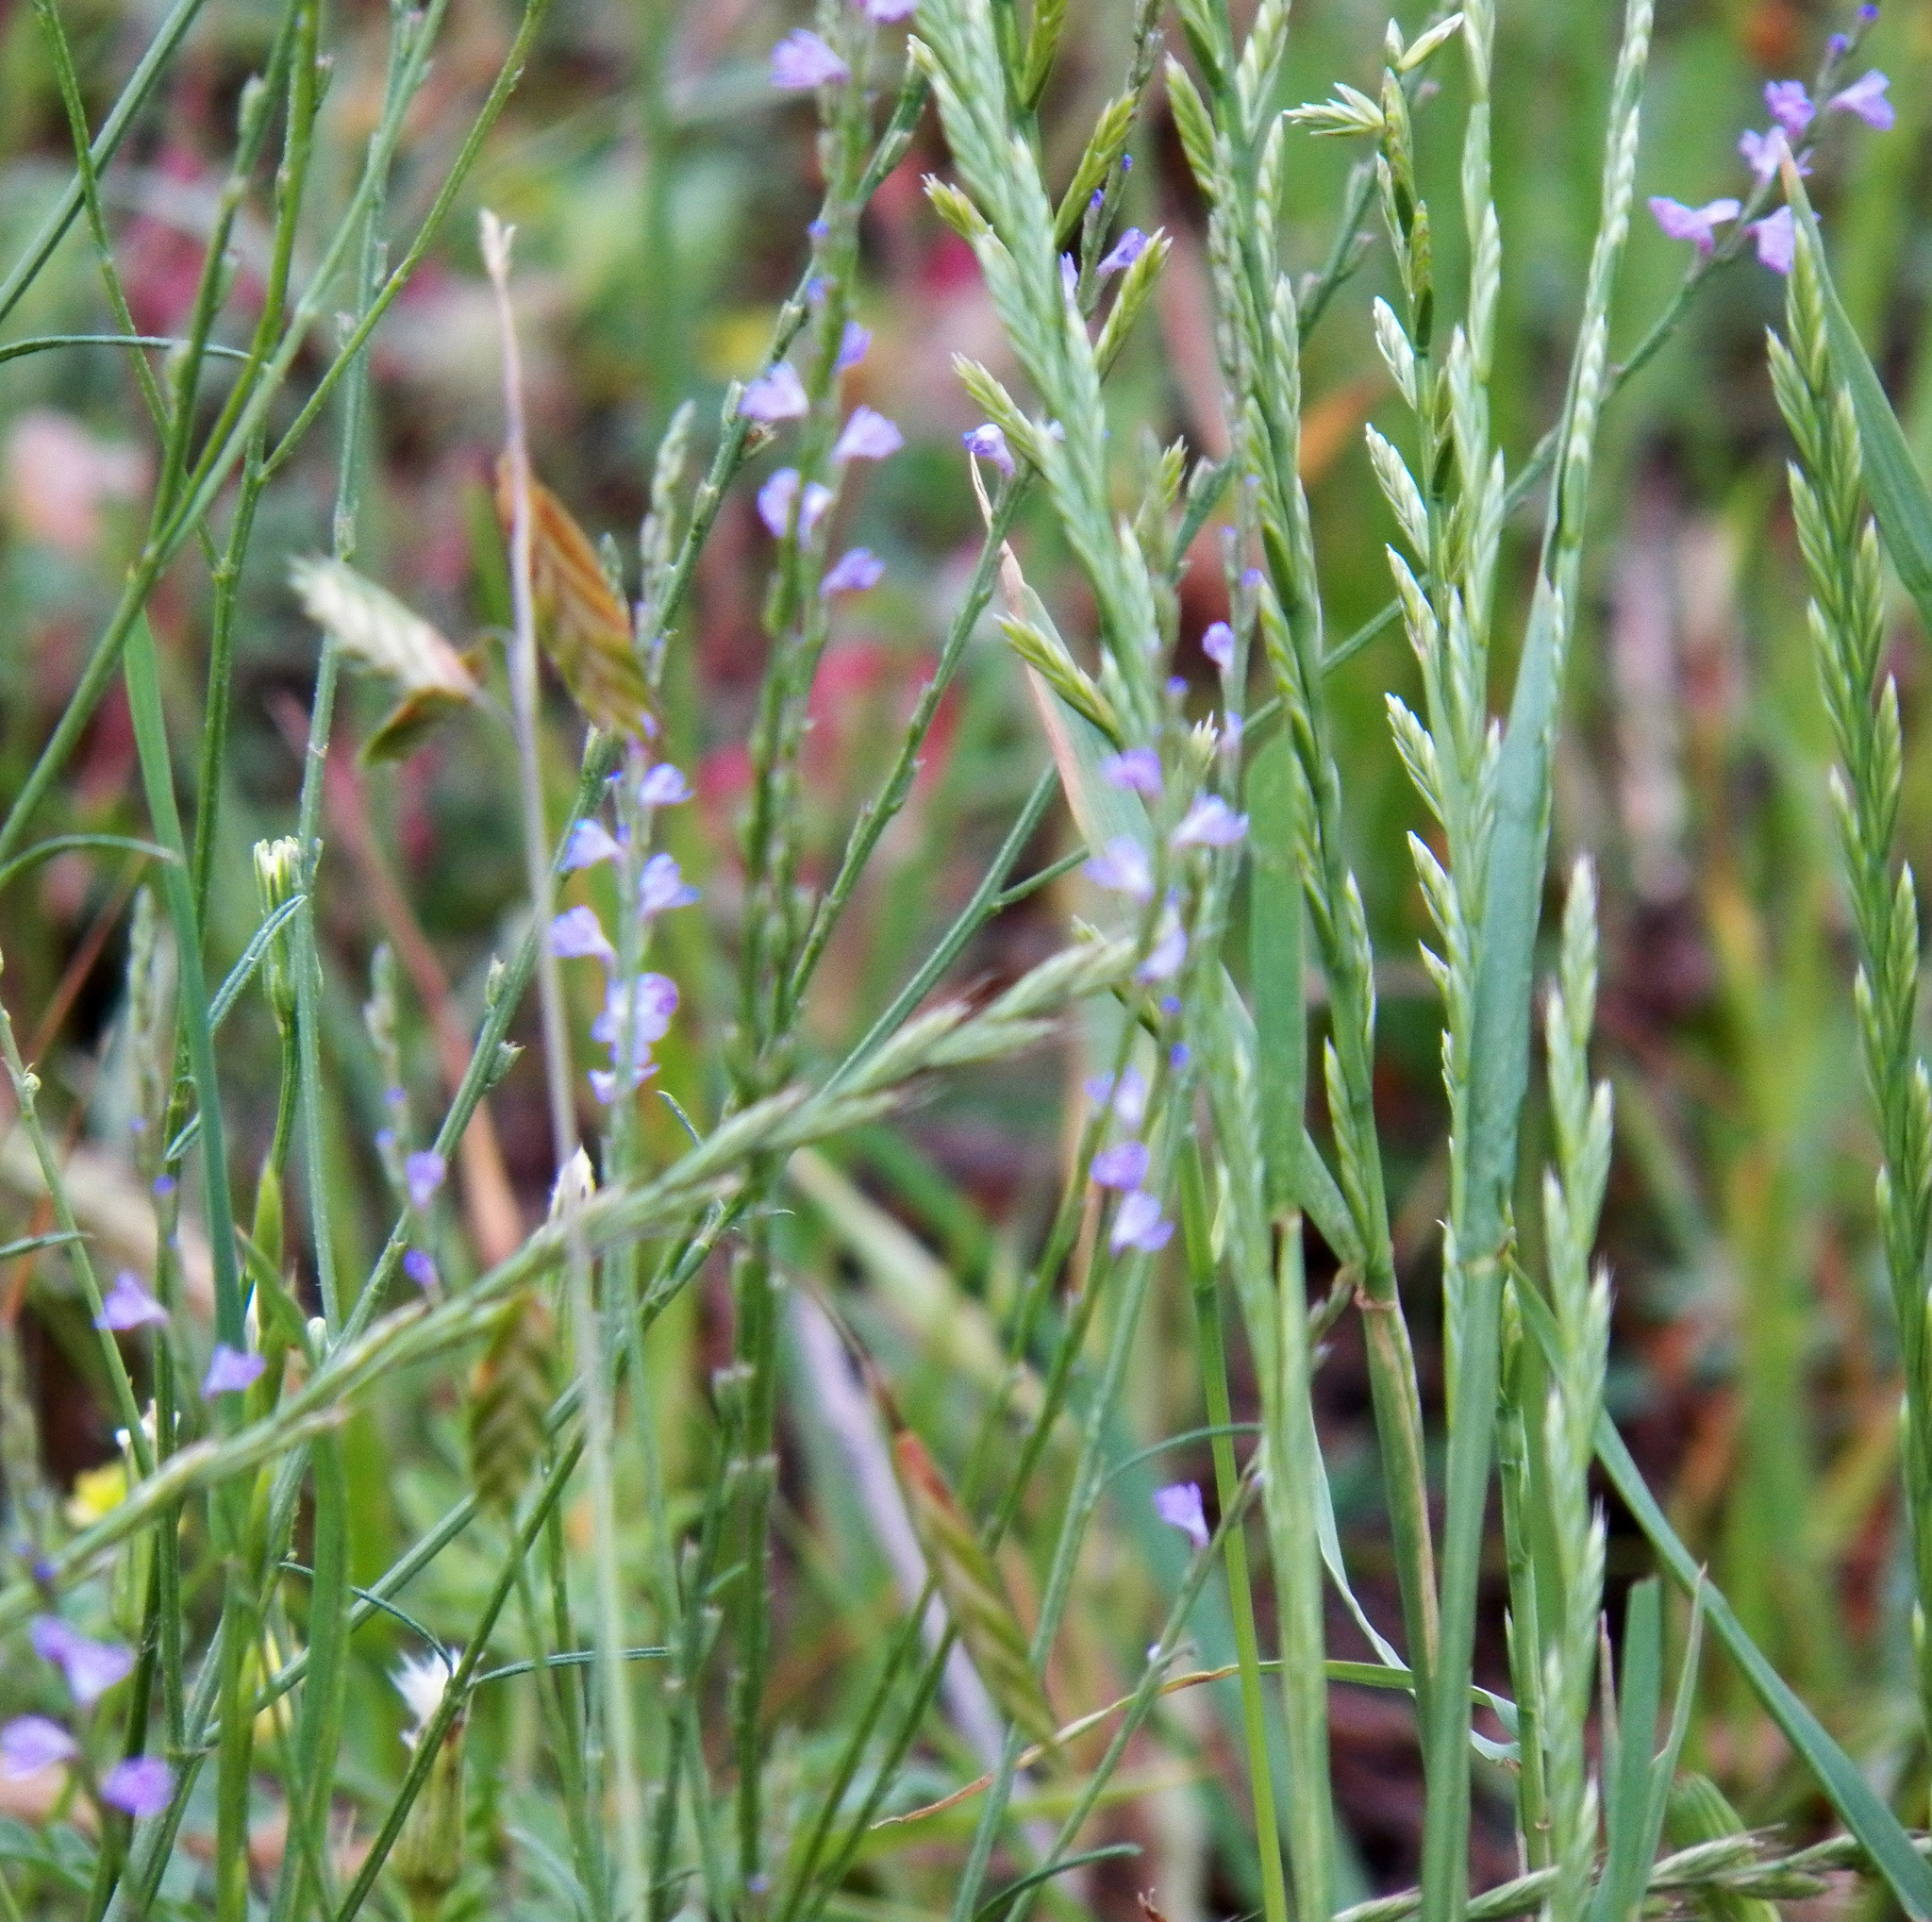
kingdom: Plantae
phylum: Tracheophyta
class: Magnoliopsida
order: Lamiales
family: Verbenaceae
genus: Verbena
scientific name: Verbena halei
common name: Texas vervain
